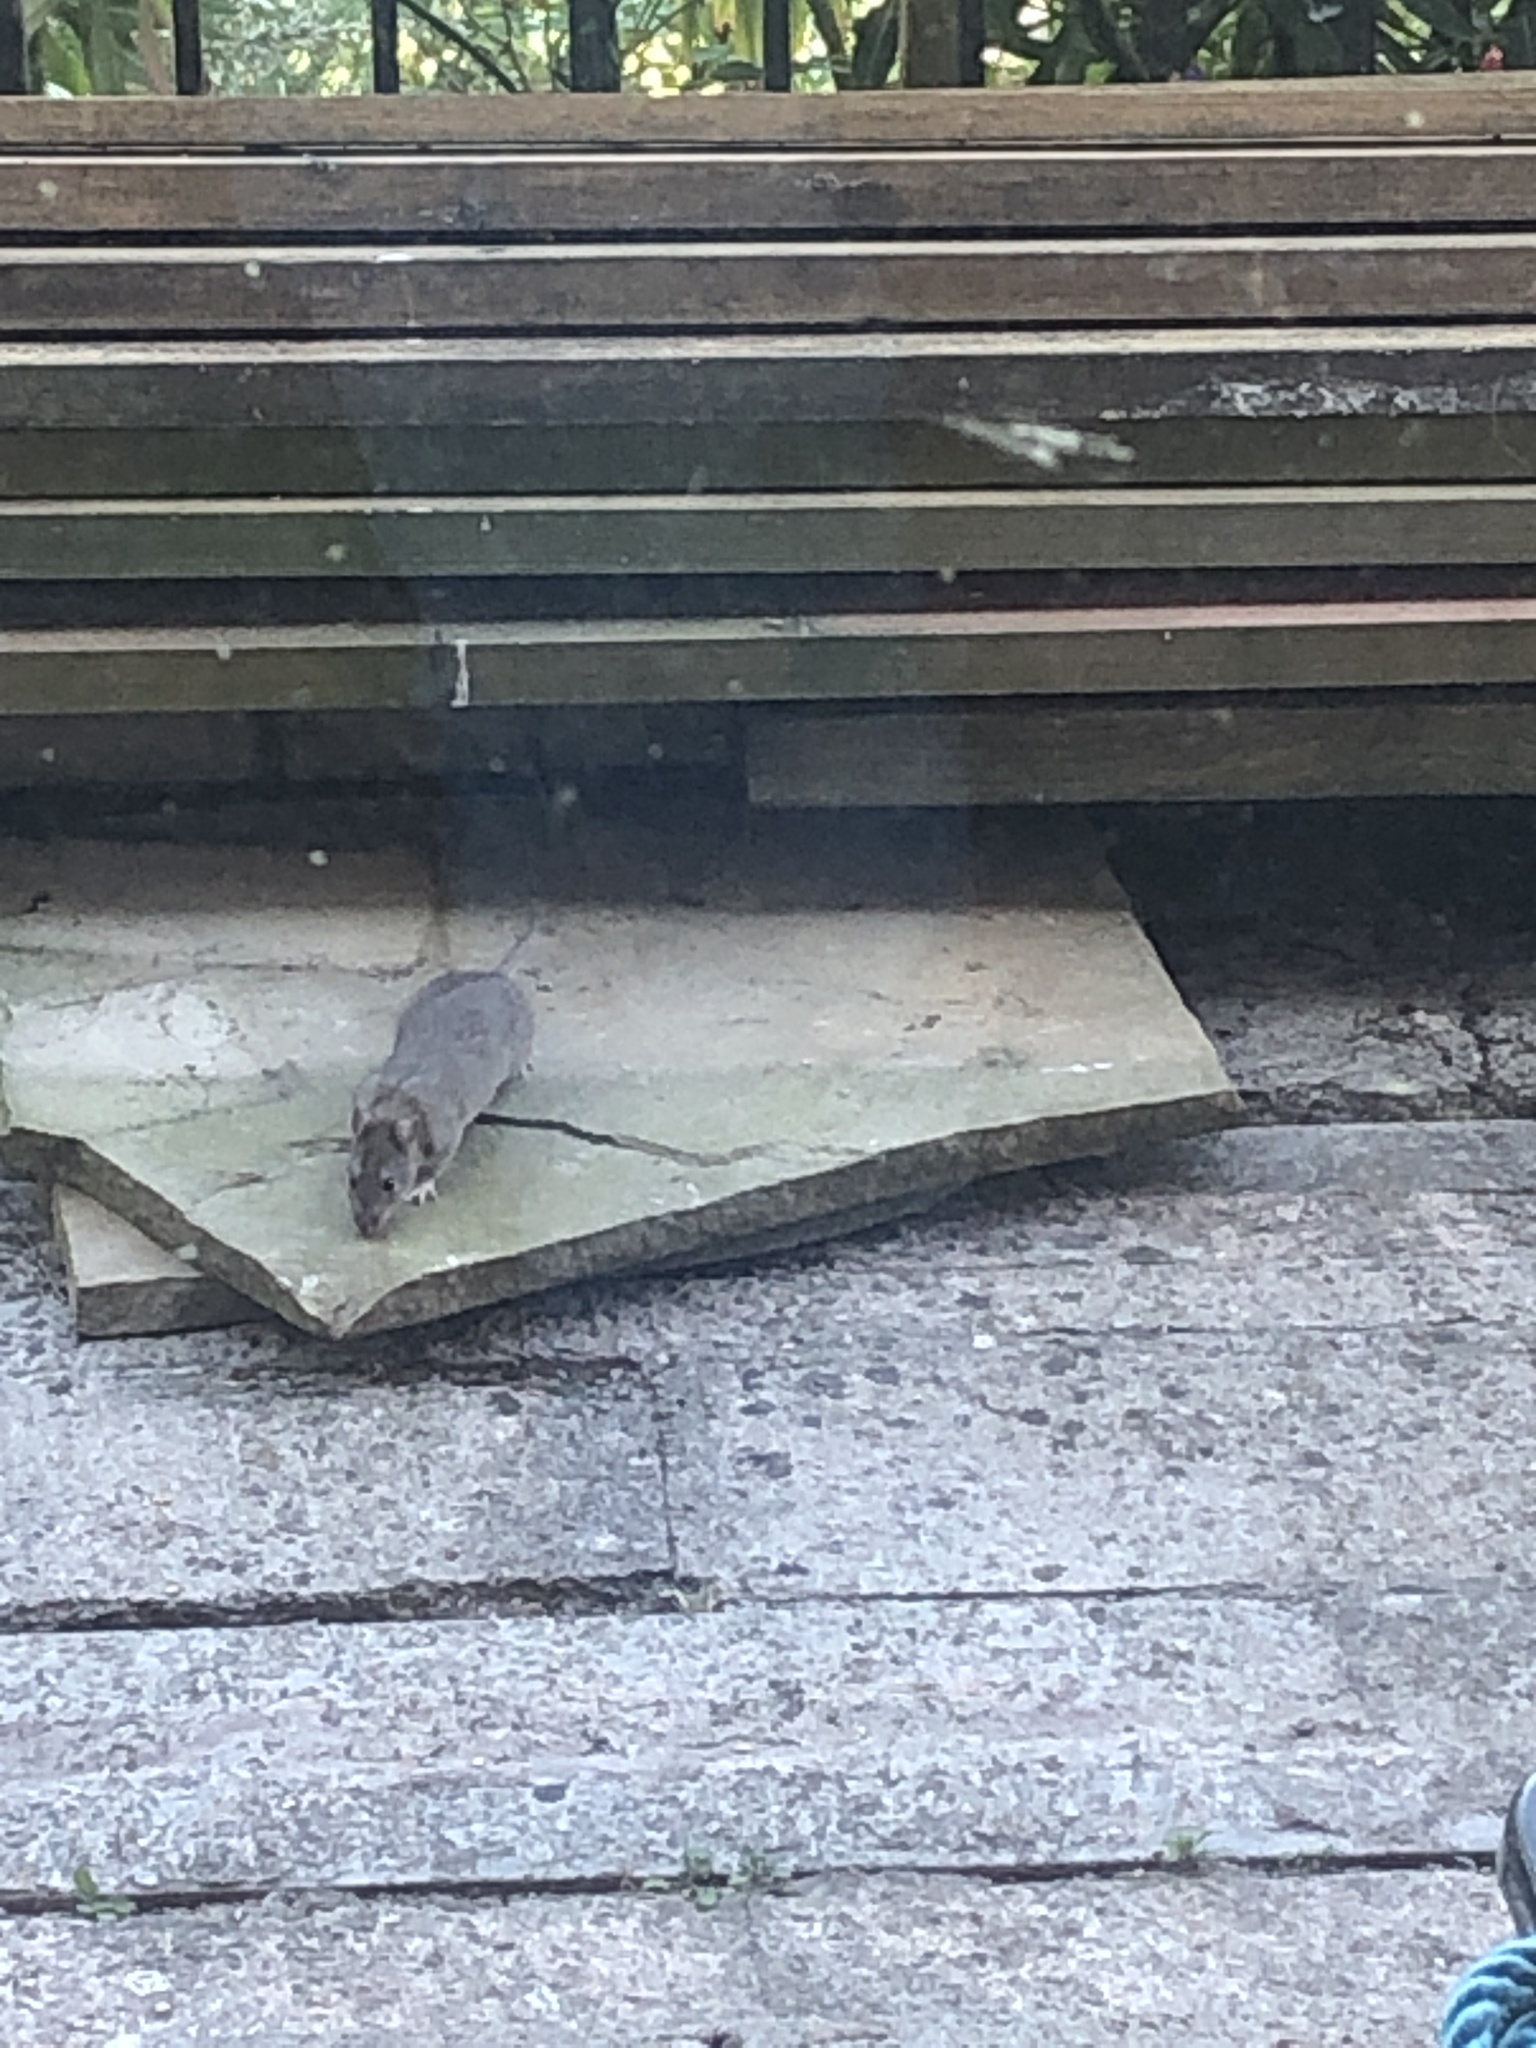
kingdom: Animalia
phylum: Chordata
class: Mammalia
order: Rodentia
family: Muridae
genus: Rattus
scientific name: Rattus norvegicus
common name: Brown rat
